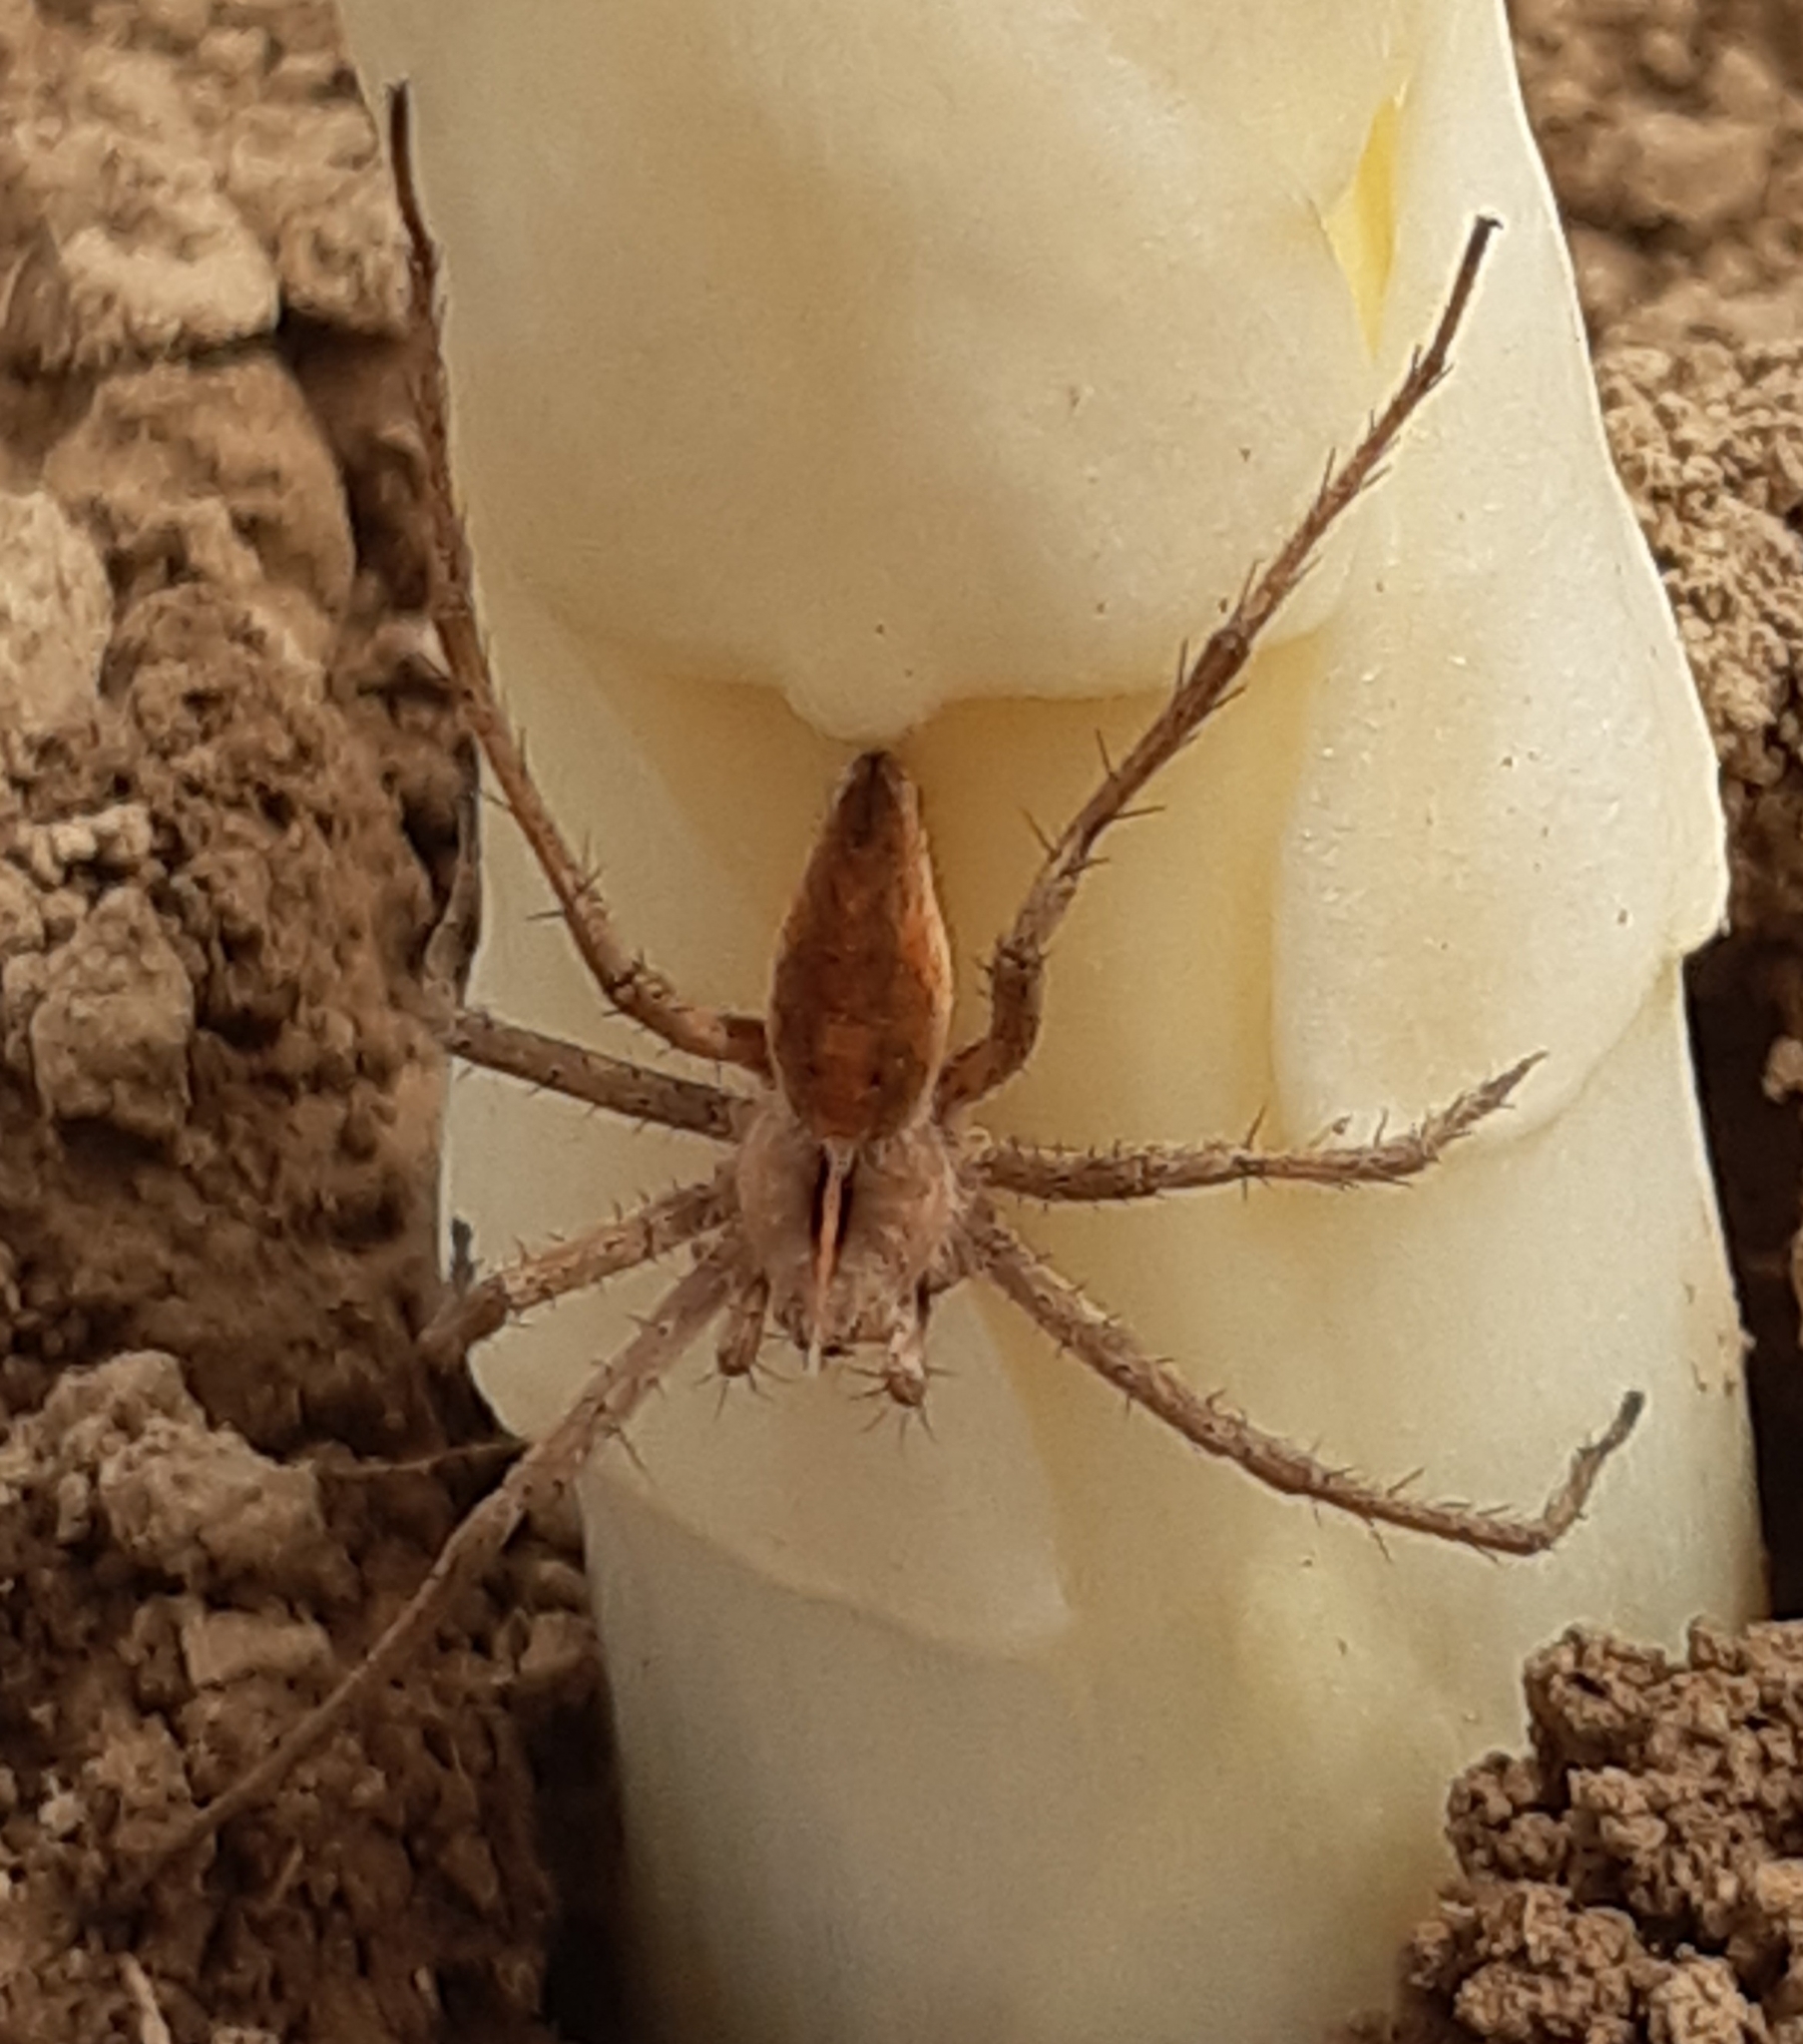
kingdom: Animalia
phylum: Arthropoda
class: Arachnida
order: Araneae
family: Pisauridae
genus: Pisaura
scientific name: Pisaura mirabilis
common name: Tent spider
